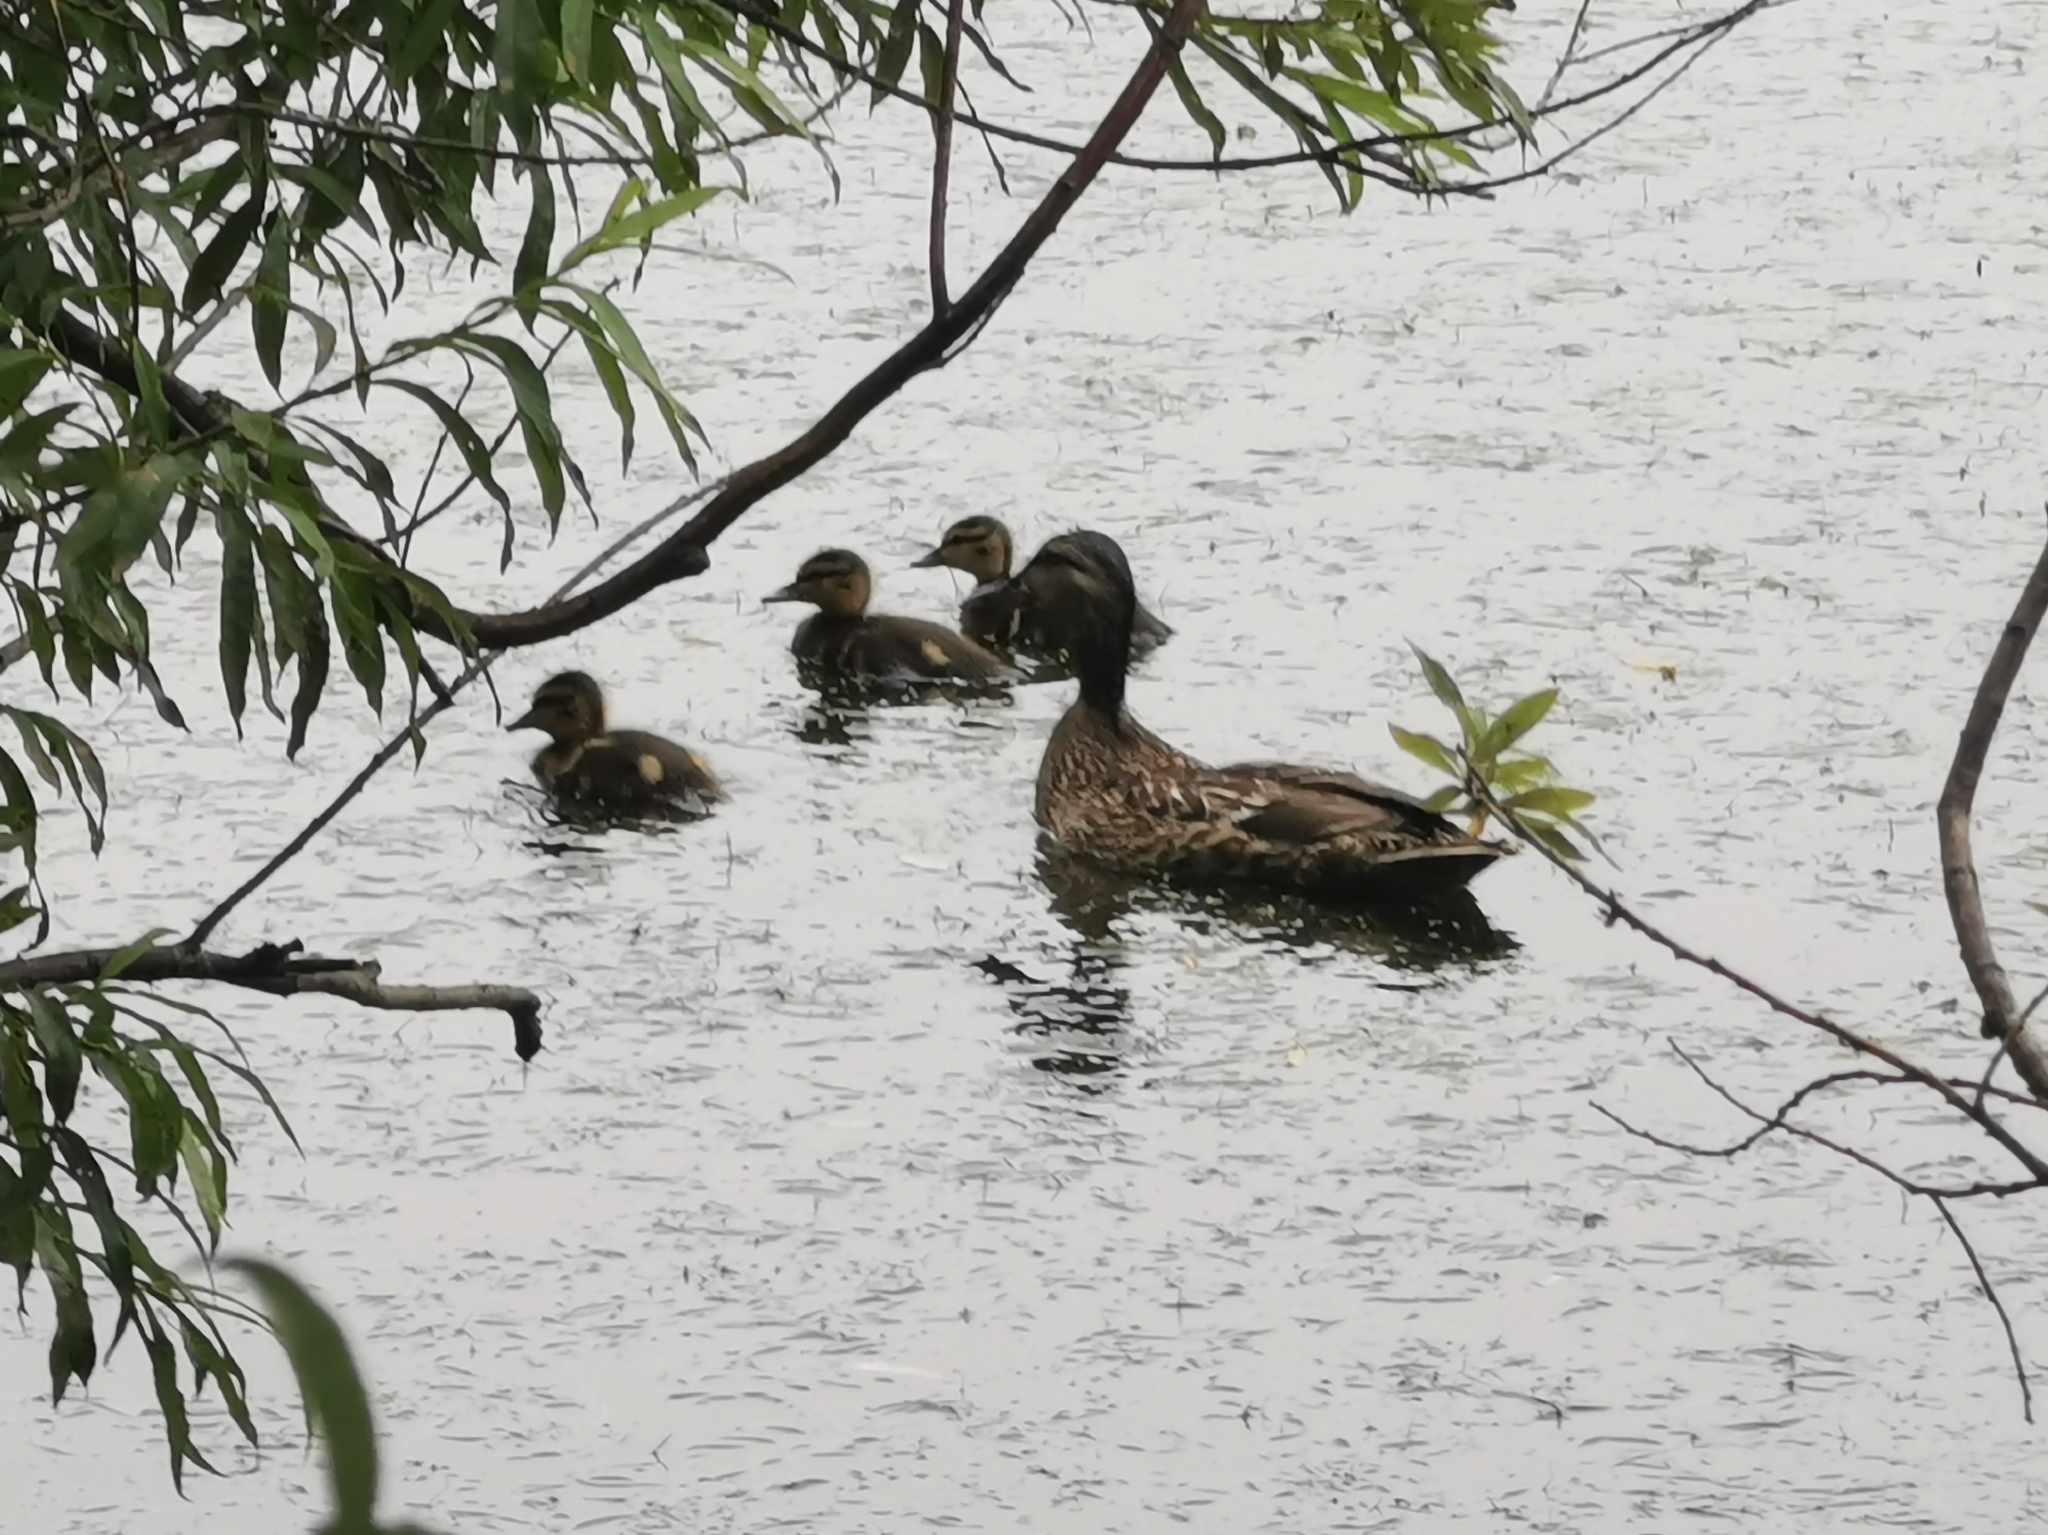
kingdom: Animalia
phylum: Chordata
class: Aves
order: Anseriformes
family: Anatidae
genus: Anas
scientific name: Anas platyrhynchos
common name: Mallard
